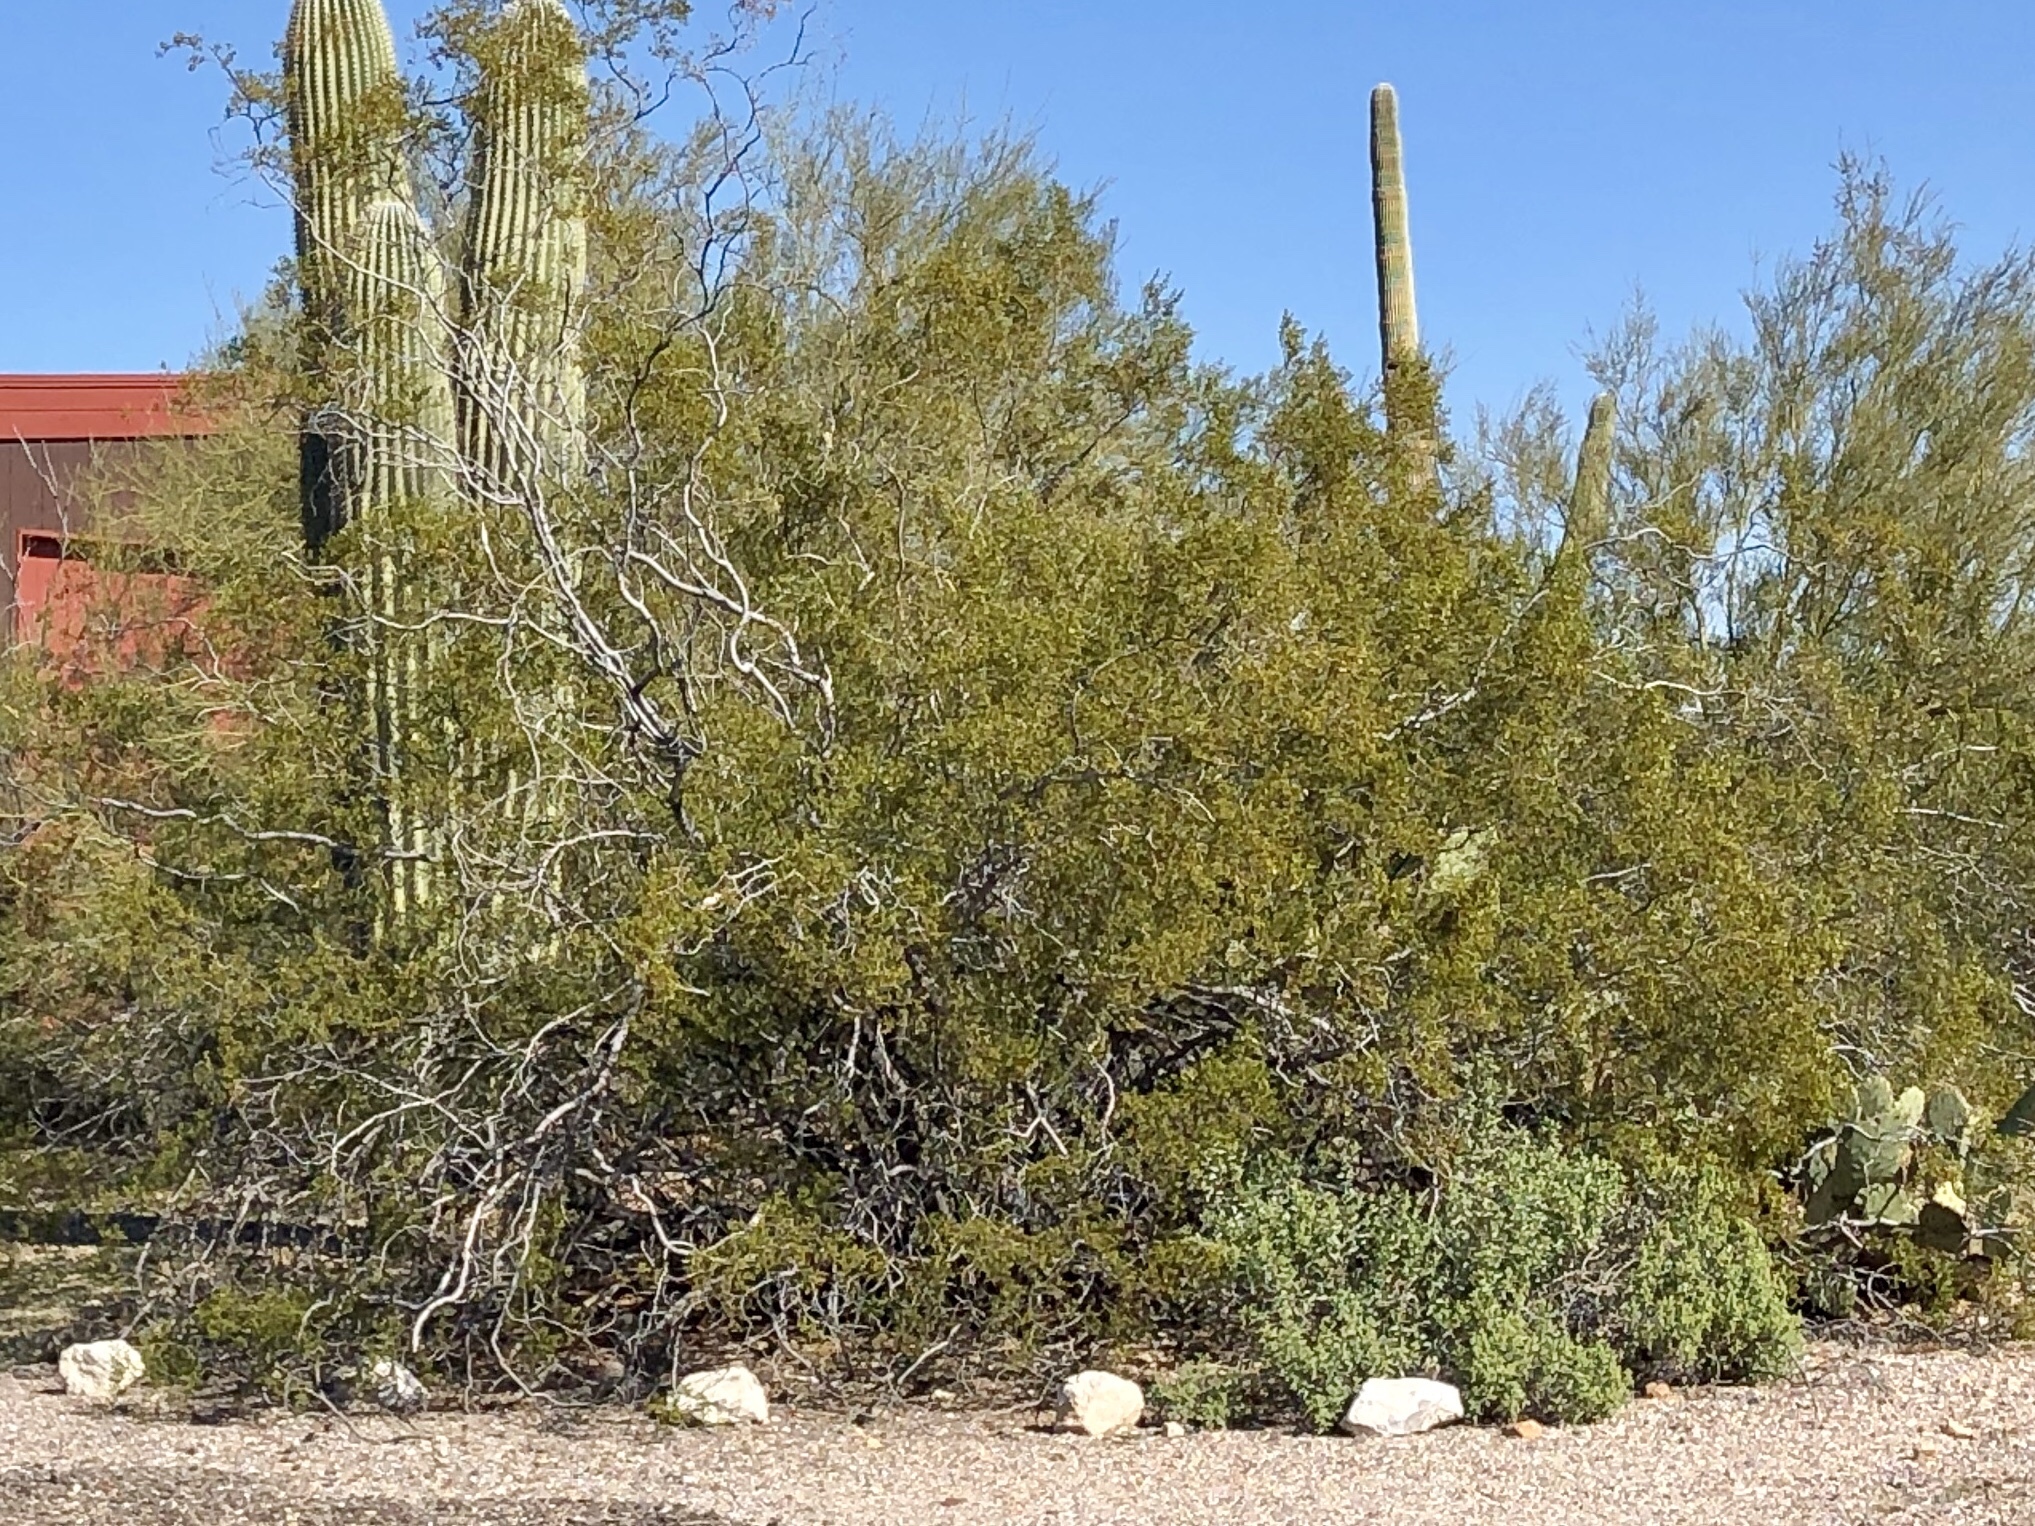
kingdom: Plantae
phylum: Tracheophyta
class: Magnoliopsida
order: Zygophyllales
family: Zygophyllaceae
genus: Larrea
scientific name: Larrea tridentata
